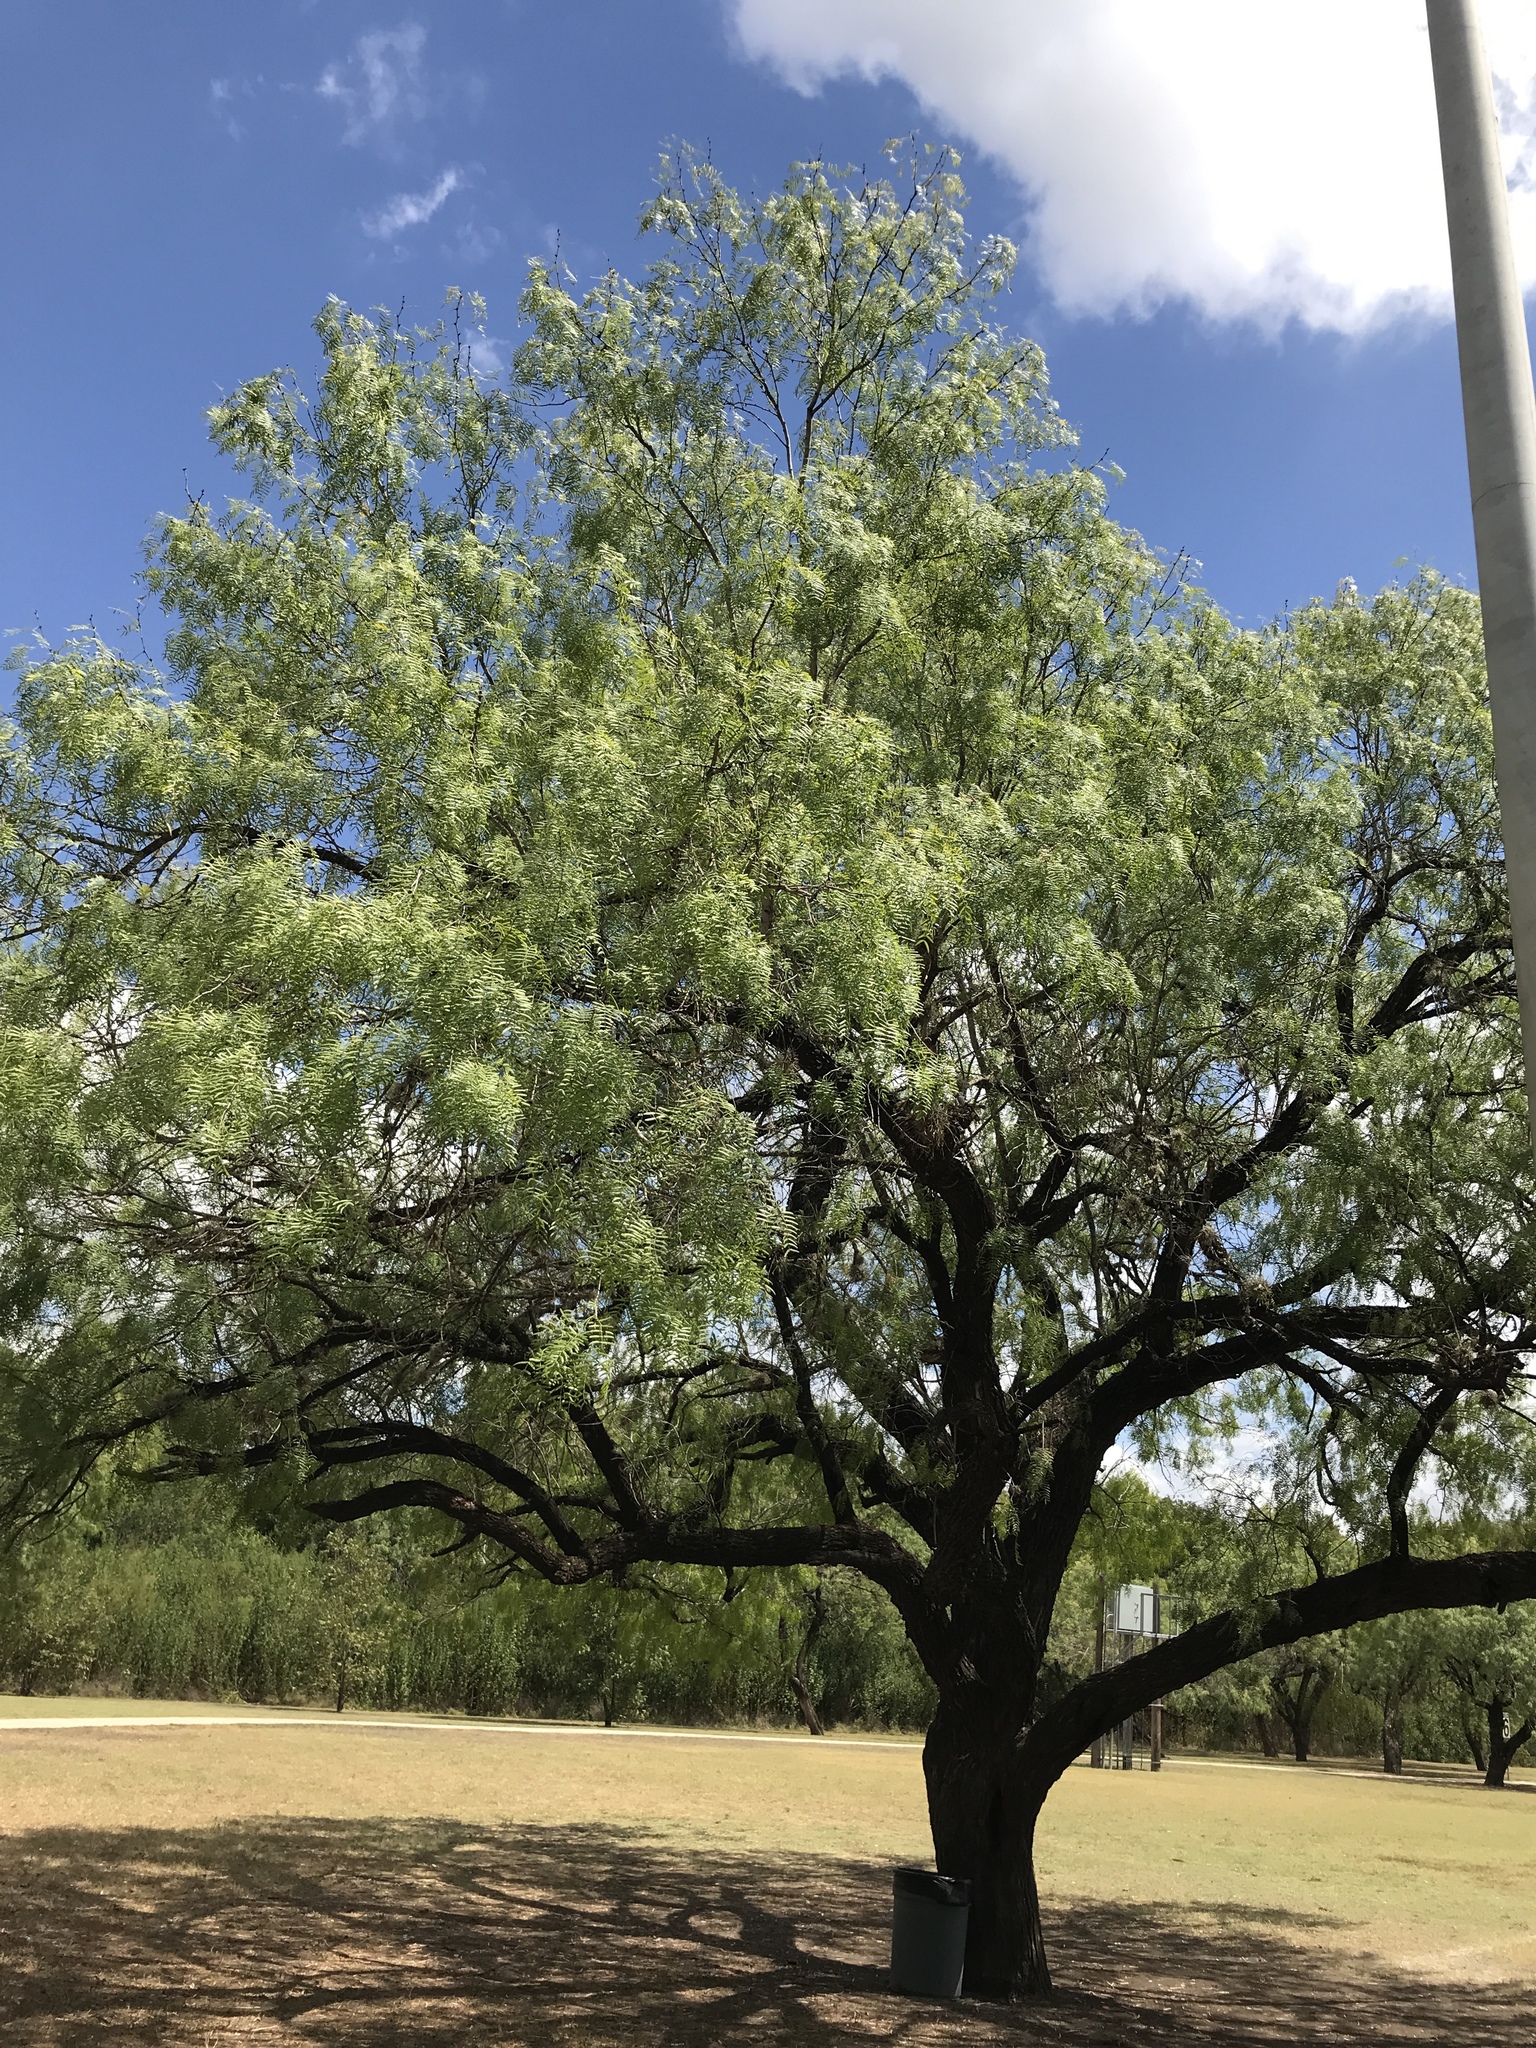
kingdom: Plantae
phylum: Tracheophyta
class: Magnoliopsida
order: Fabales
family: Fabaceae
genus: Prosopis
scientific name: Prosopis glandulosa
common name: Honey mesquite
